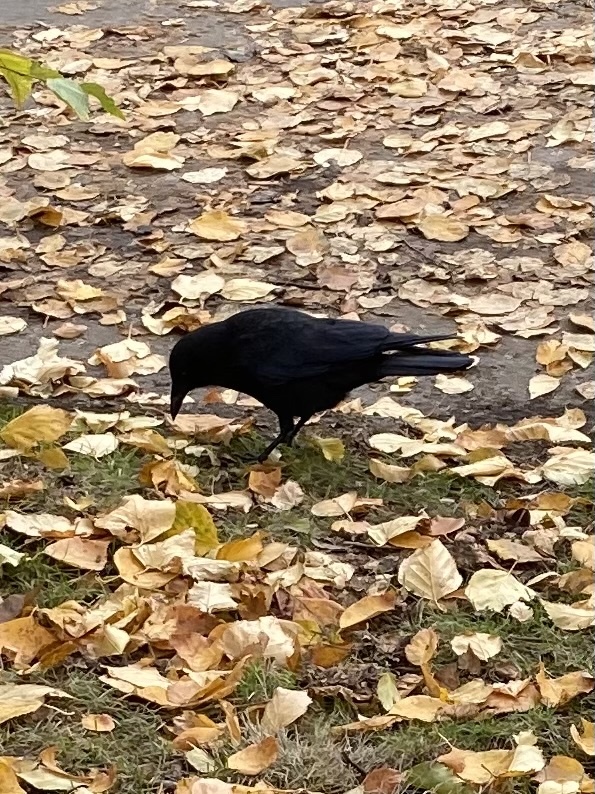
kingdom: Animalia
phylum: Chordata
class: Aves
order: Passeriformes
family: Corvidae
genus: Corvus
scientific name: Corvus brachyrhynchos
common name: American crow
